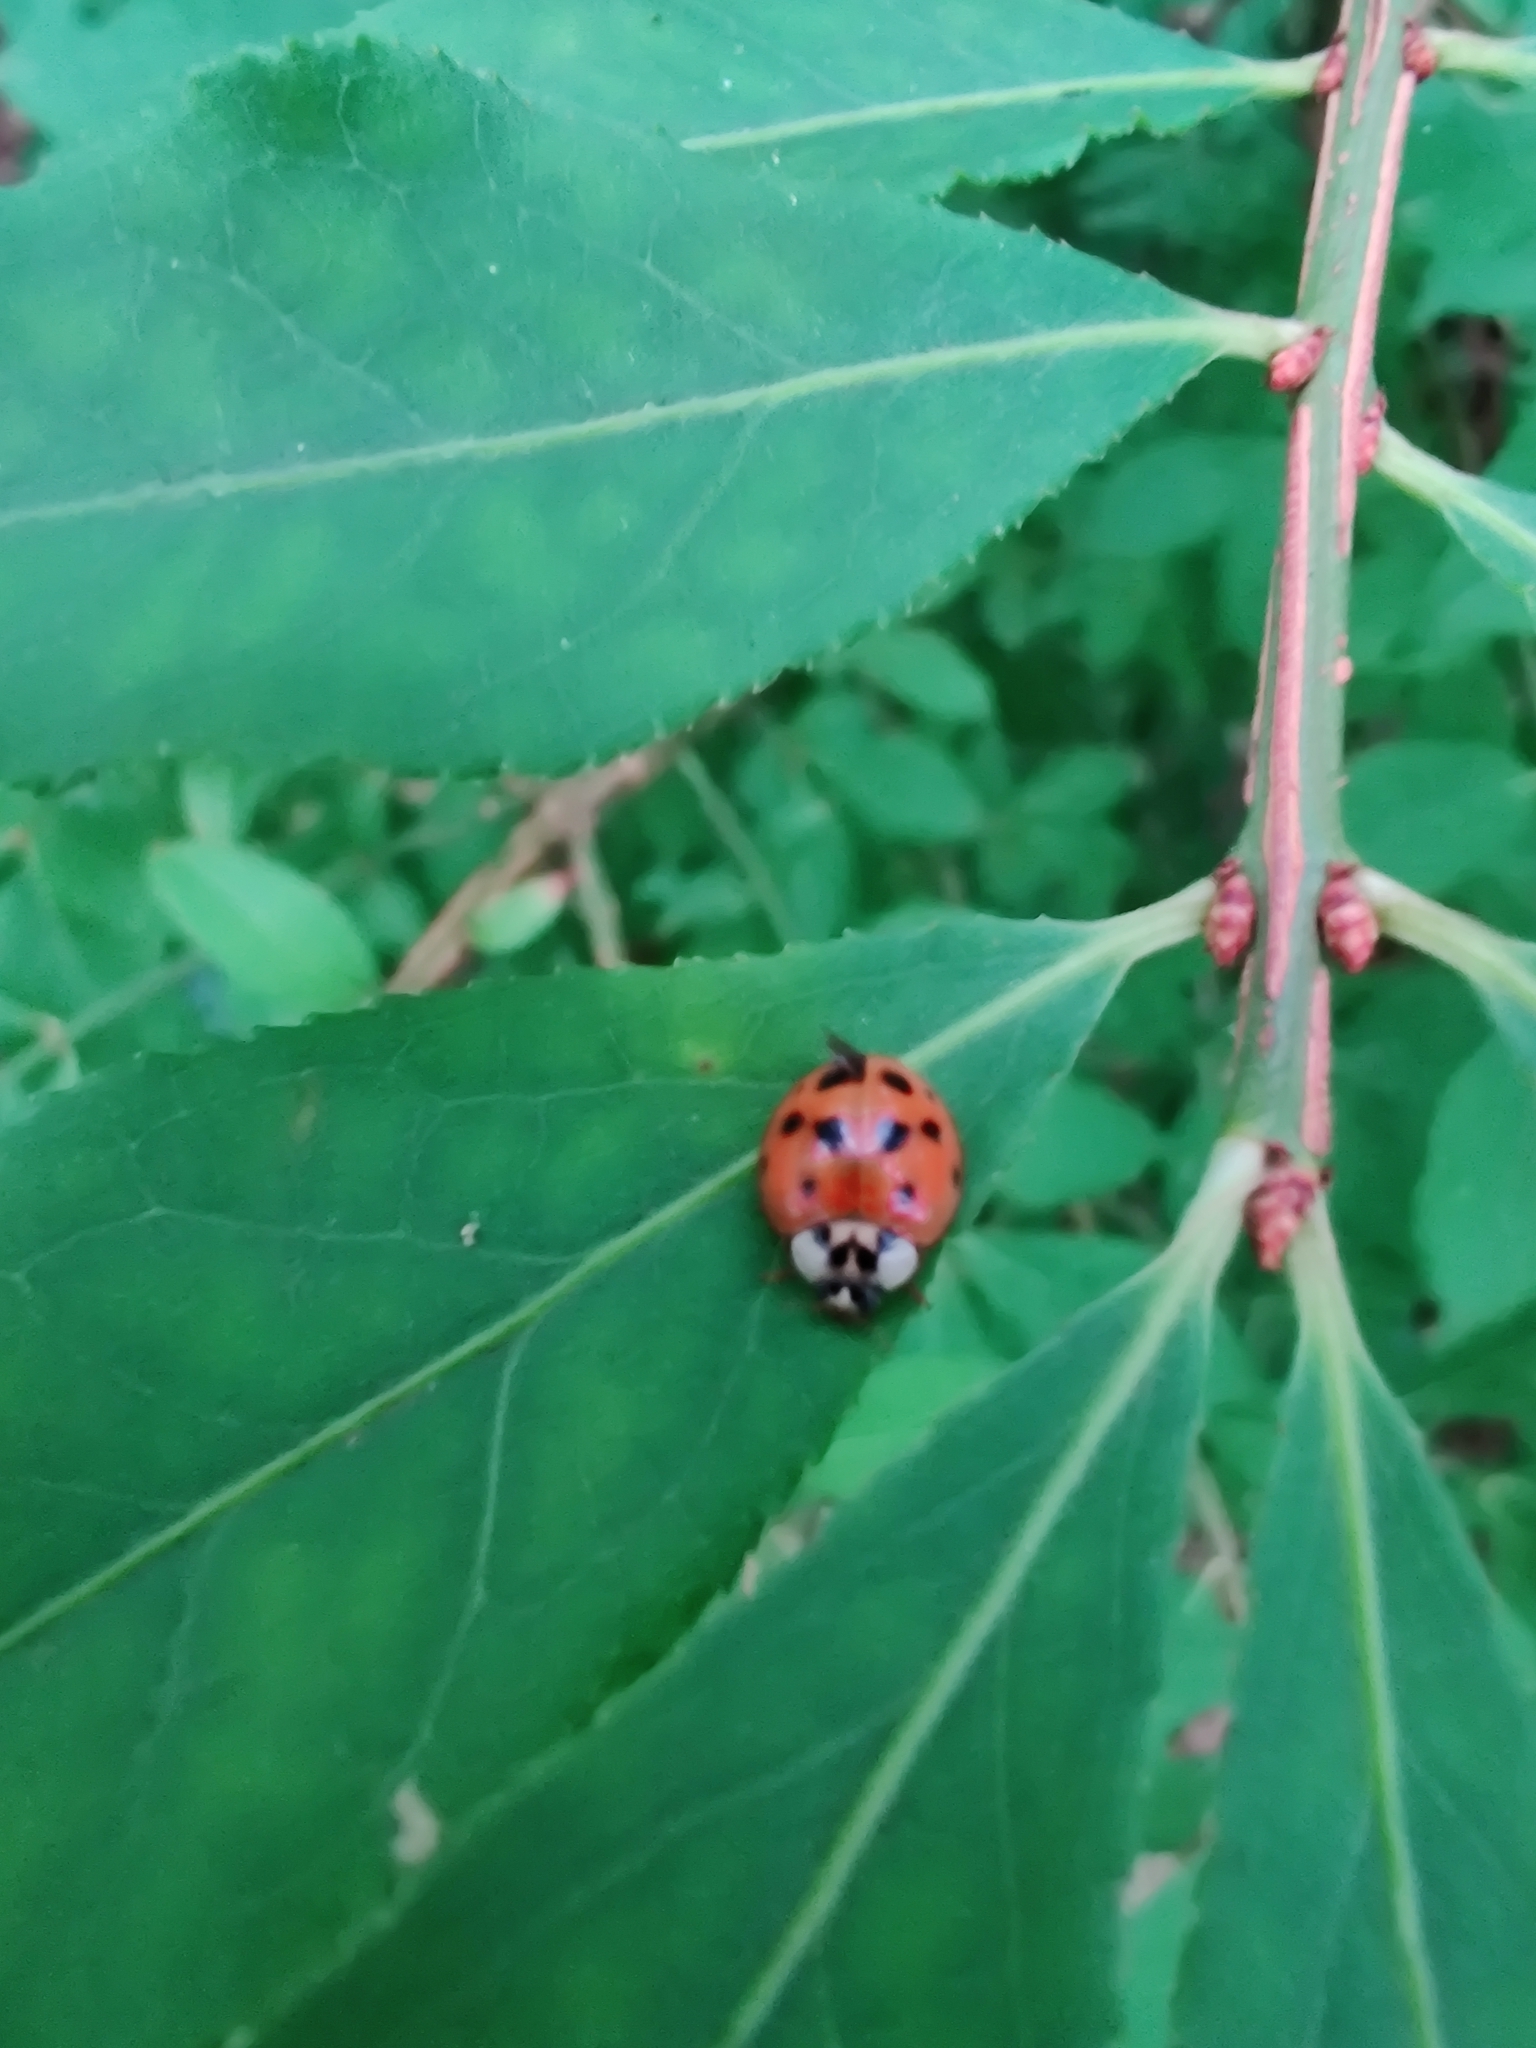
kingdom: Animalia
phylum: Arthropoda
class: Insecta
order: Coleoptera
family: Coccinellidae
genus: Harmonia
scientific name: Harmonia axyridis
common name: Harlequin ladybird
